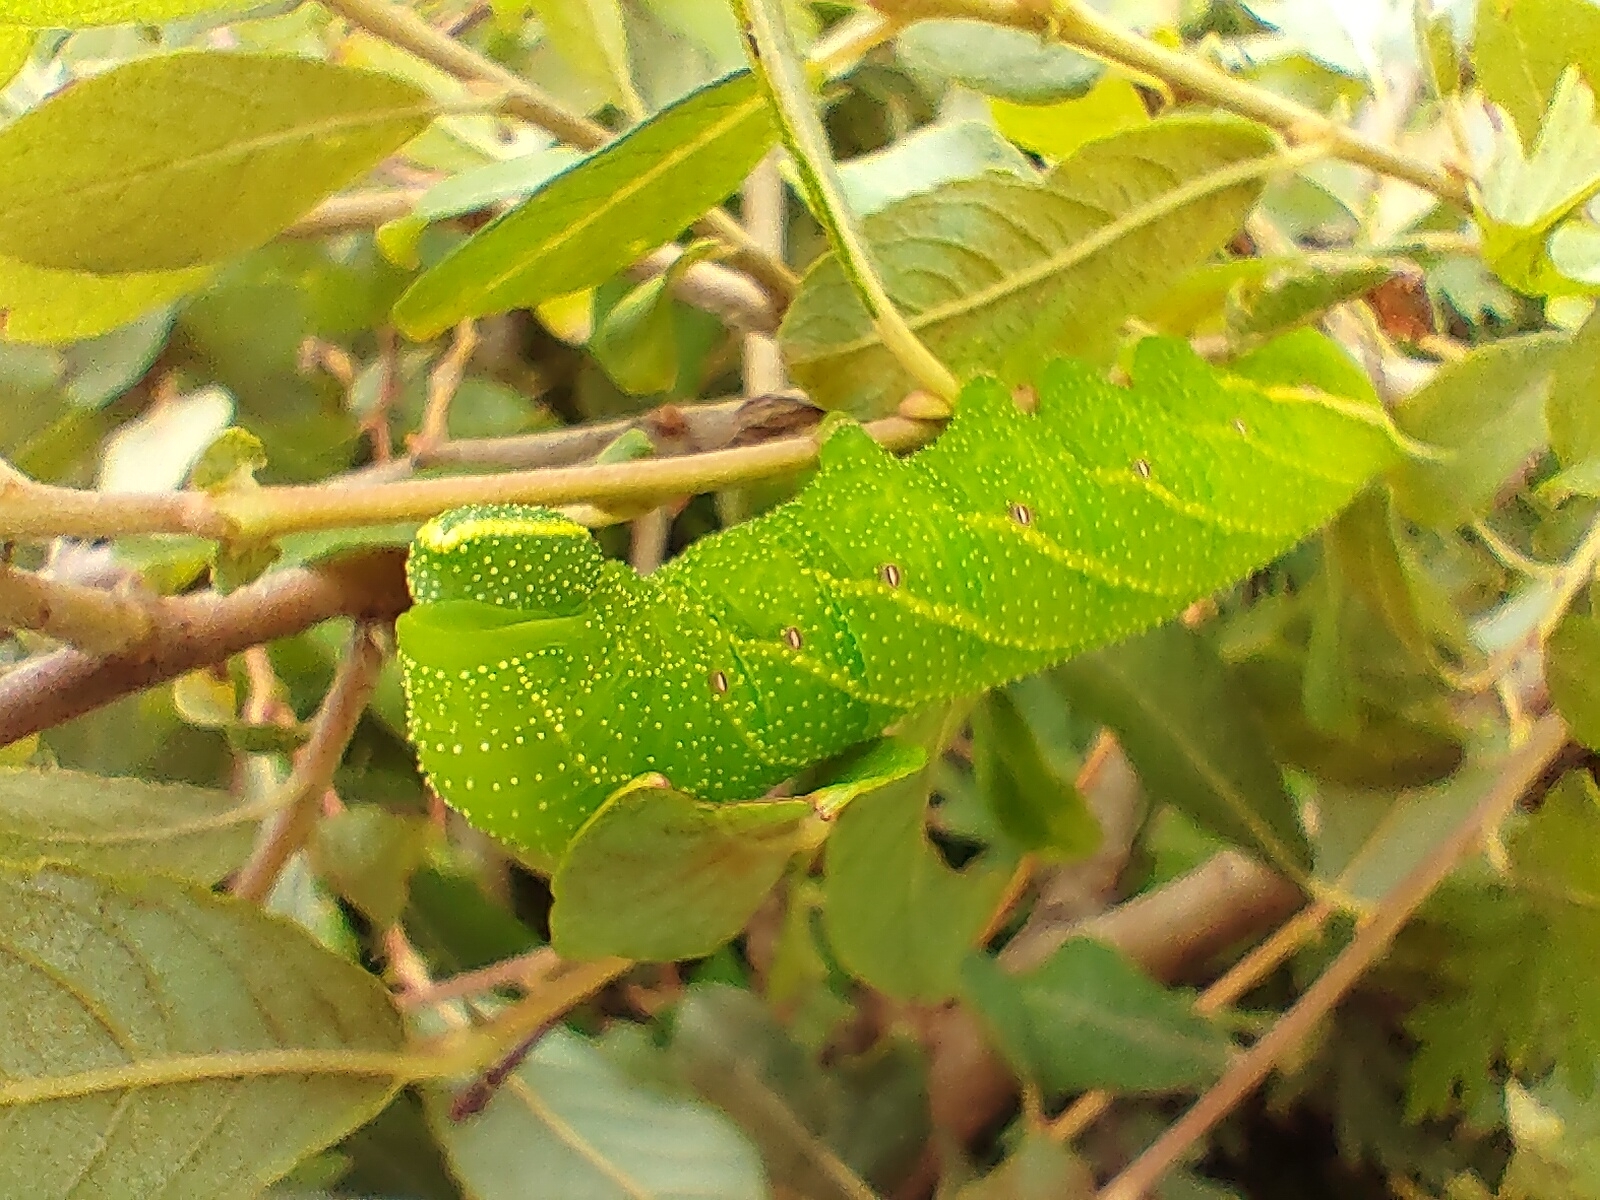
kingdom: Animalia
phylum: Arthropoda
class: Insecta
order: Lepidoptera
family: Sphingidae
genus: Smerinthus
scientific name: Smerinthus ocellata
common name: Eyed hawk-moth
